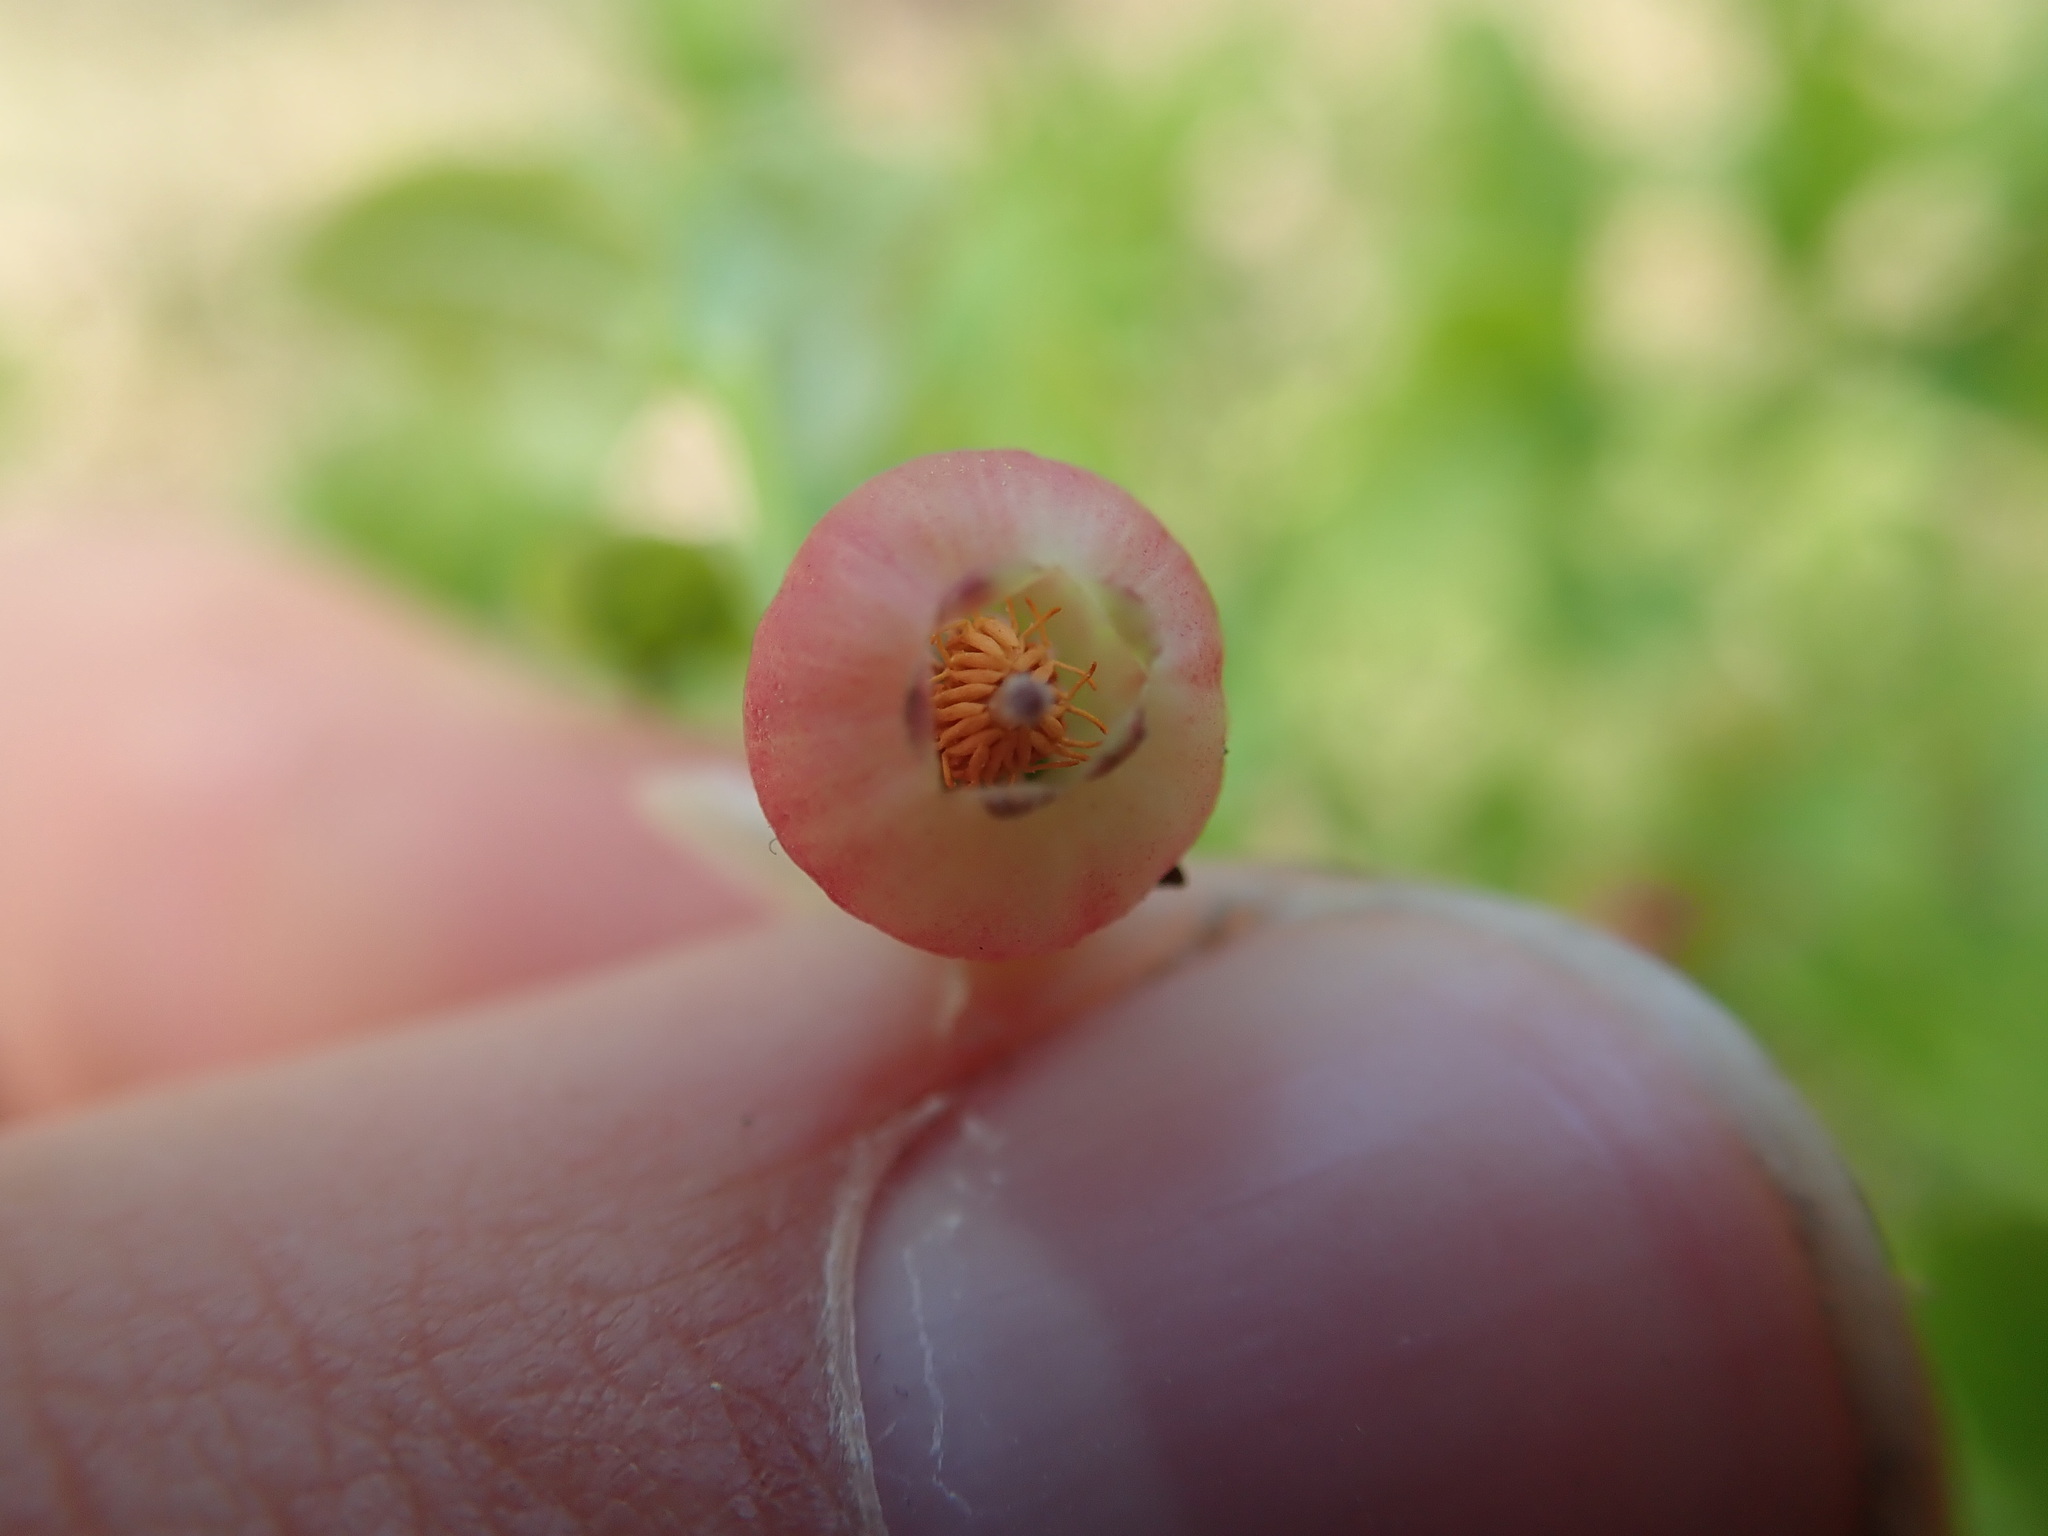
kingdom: Plantae
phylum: Tracheophyta
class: Magnoliopsida
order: Ericales
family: Ericaceae
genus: Vaccinium
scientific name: Vaccinium myrtillus
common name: Bilberry
